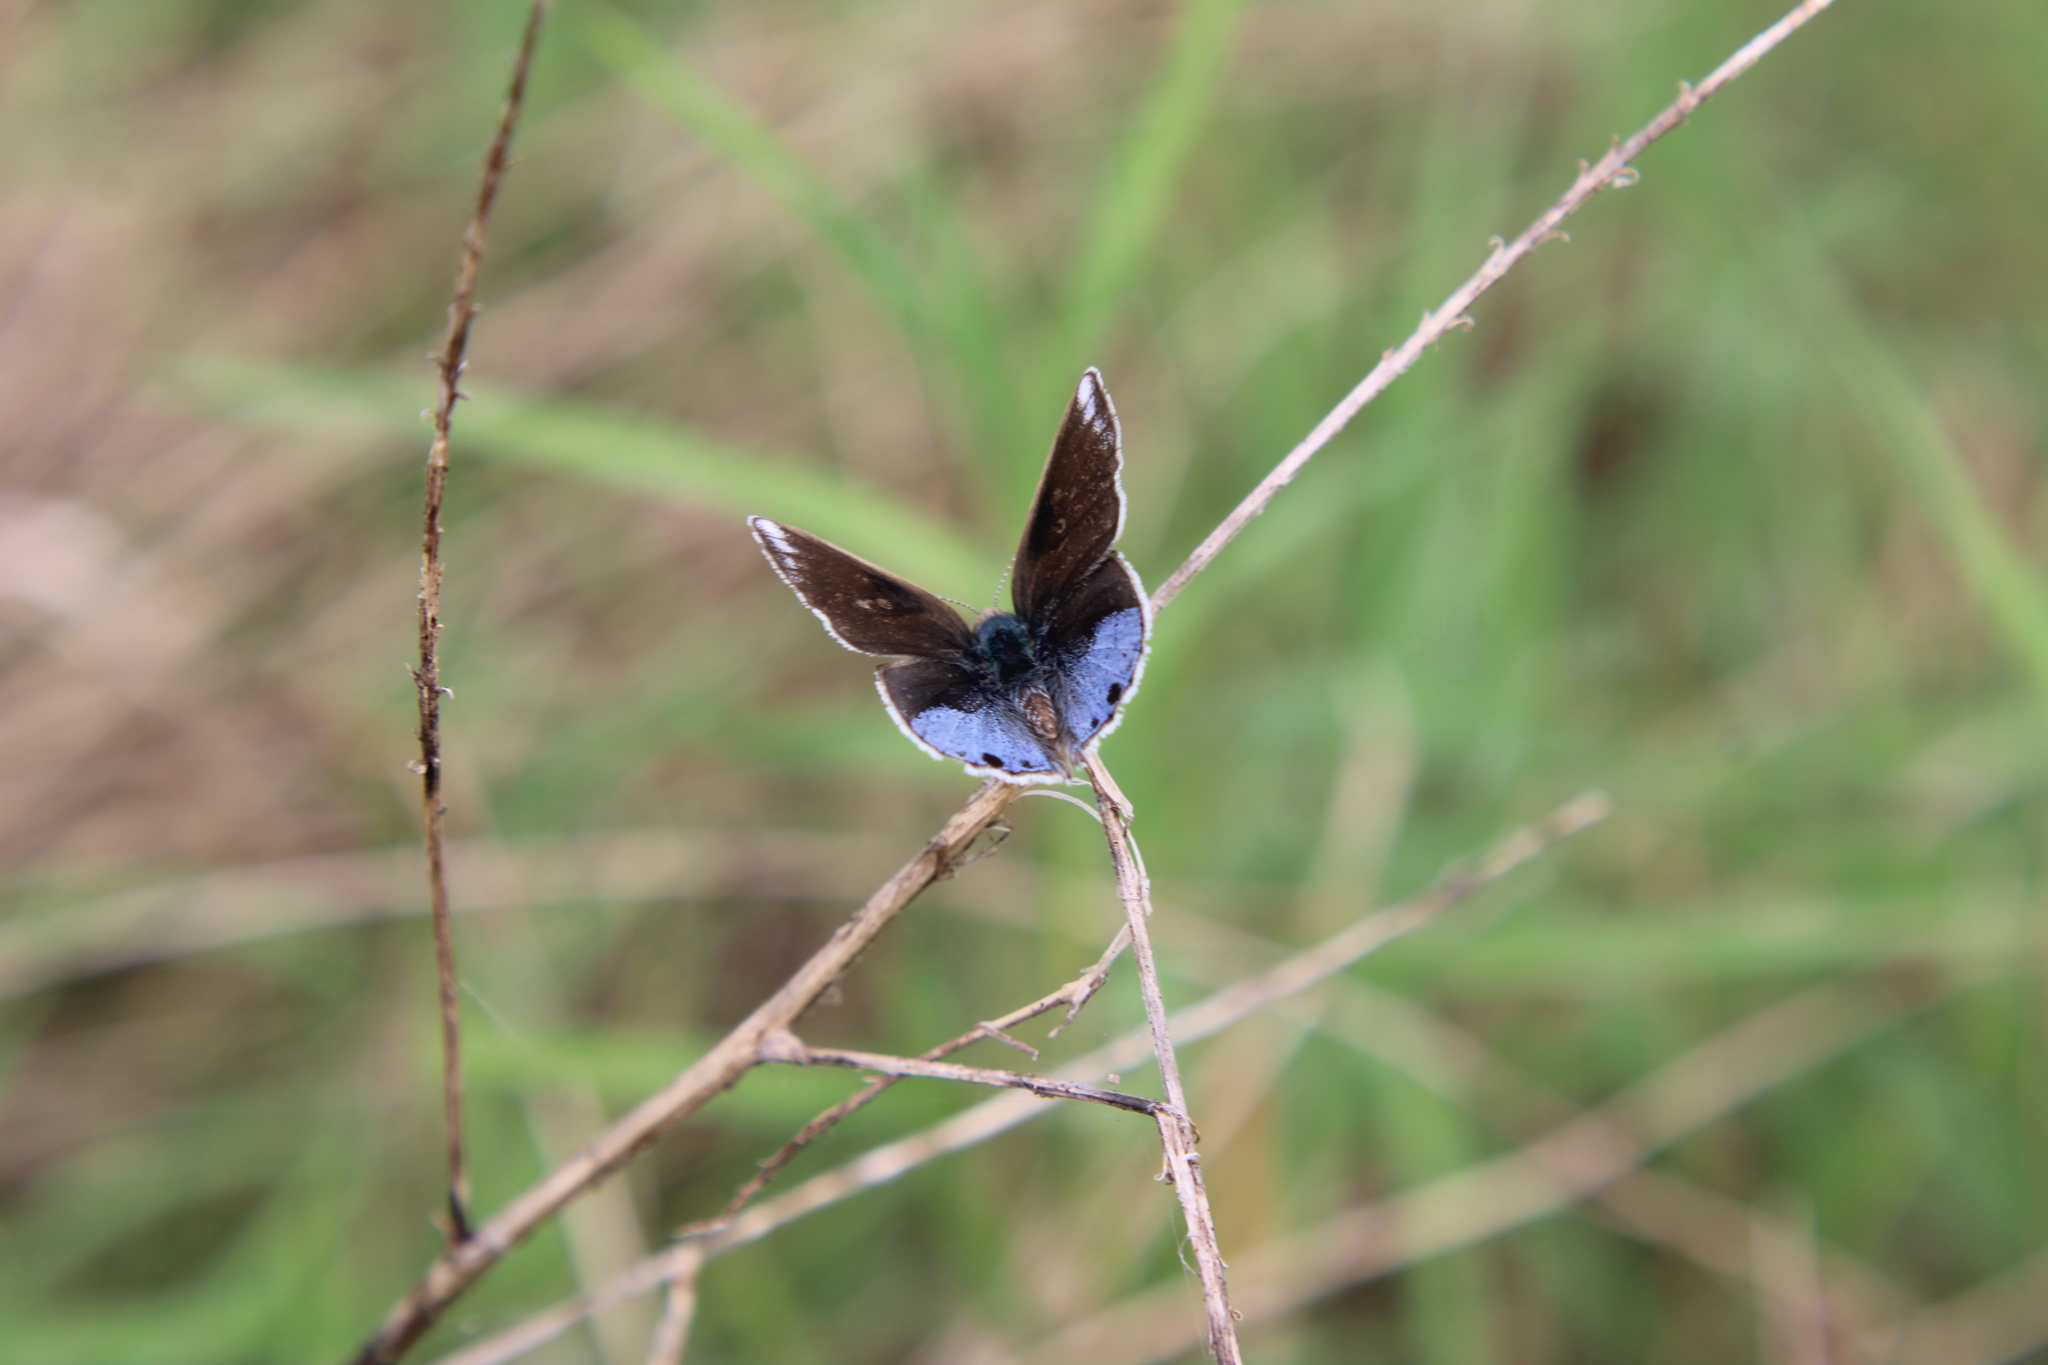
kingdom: Animalia
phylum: Arthropoda
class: Insecta
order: Lepidoptera
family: Lycaenidae
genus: Strymon
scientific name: Strymon bazochii
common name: Lantana scrub-hairstreak
